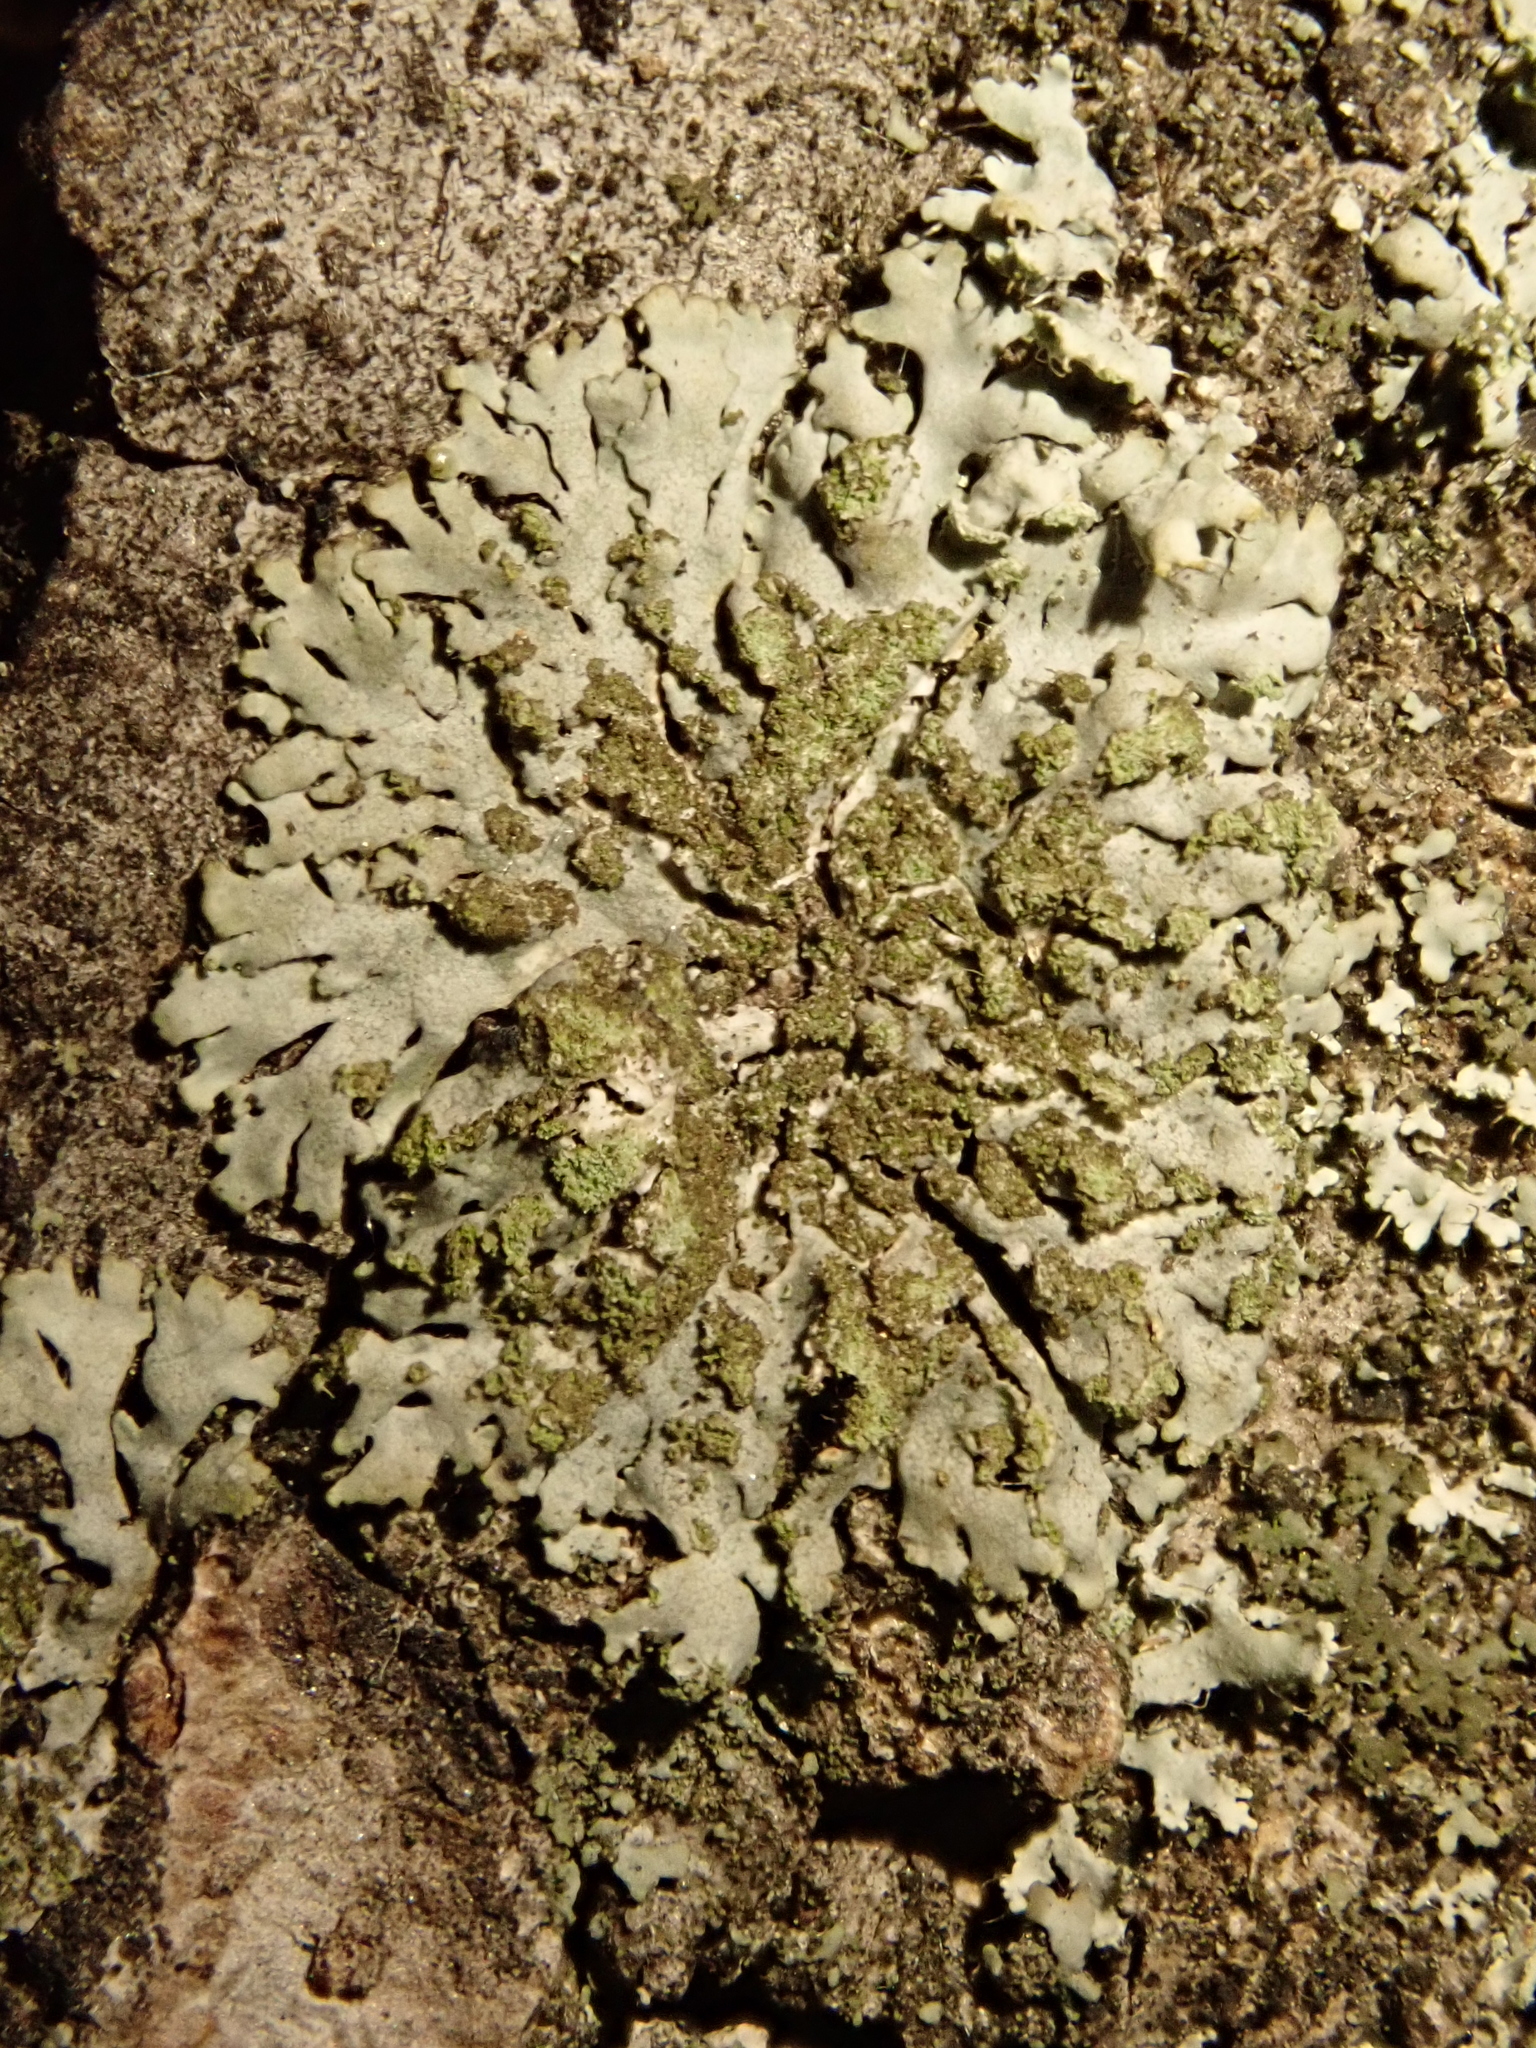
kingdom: Fungi
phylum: Ascomycota
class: Lecanoromycetes
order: Caliciales
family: Physciaceae
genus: Phaeophyscia
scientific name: Phaeophyscia orbicularis
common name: Mealy shadow lichen
